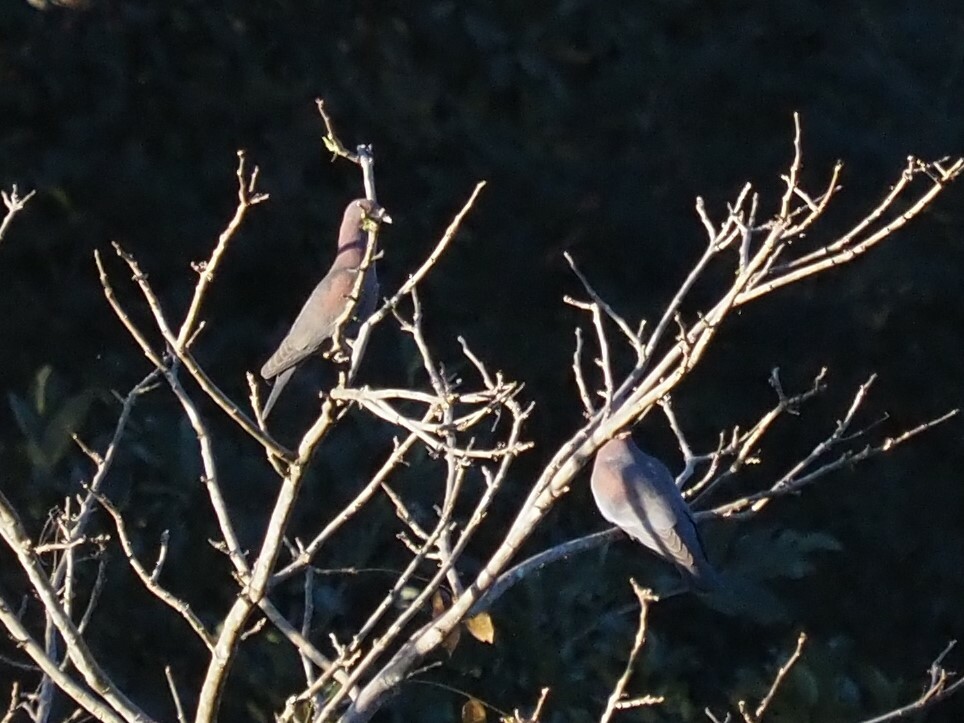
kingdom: Animalia
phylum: Chordata
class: Aves
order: Columbiformes
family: Columbidae
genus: Patagioenas
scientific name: Patagioenas flavirostris
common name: Red-billed pigeon
